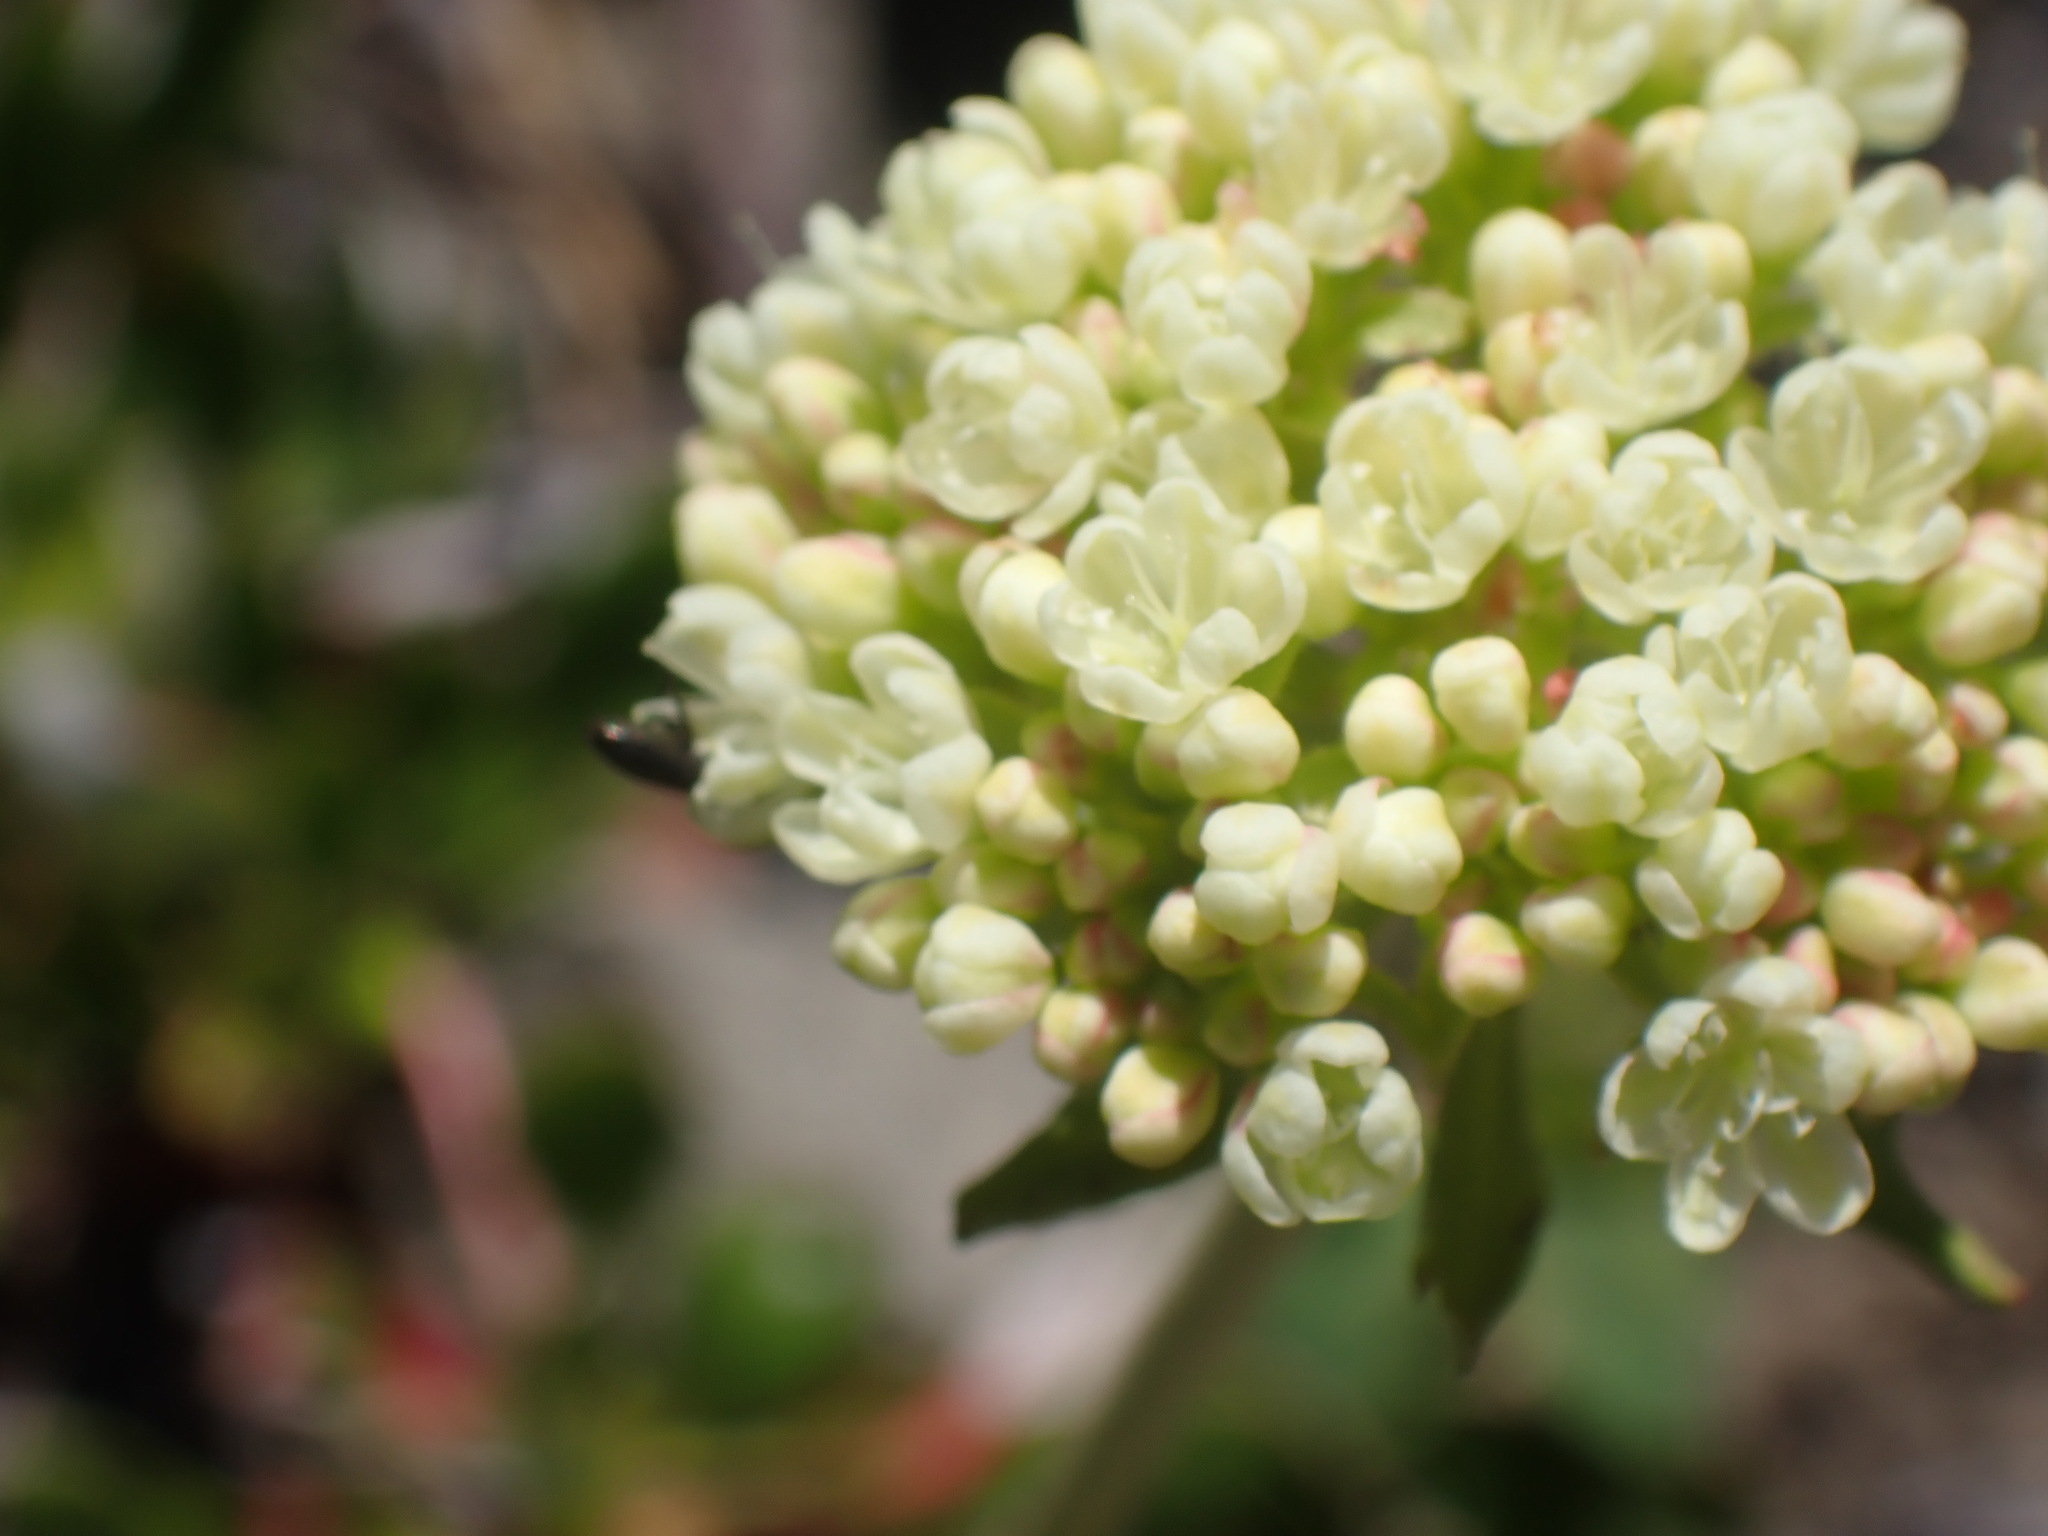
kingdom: Plantae
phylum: Tracheophyta
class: Magnoliopsida
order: Caryophyllales
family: Polygonaceae
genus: Eriogonum
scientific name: Eriogonum umbellatum
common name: Sulfur-buckwheat
